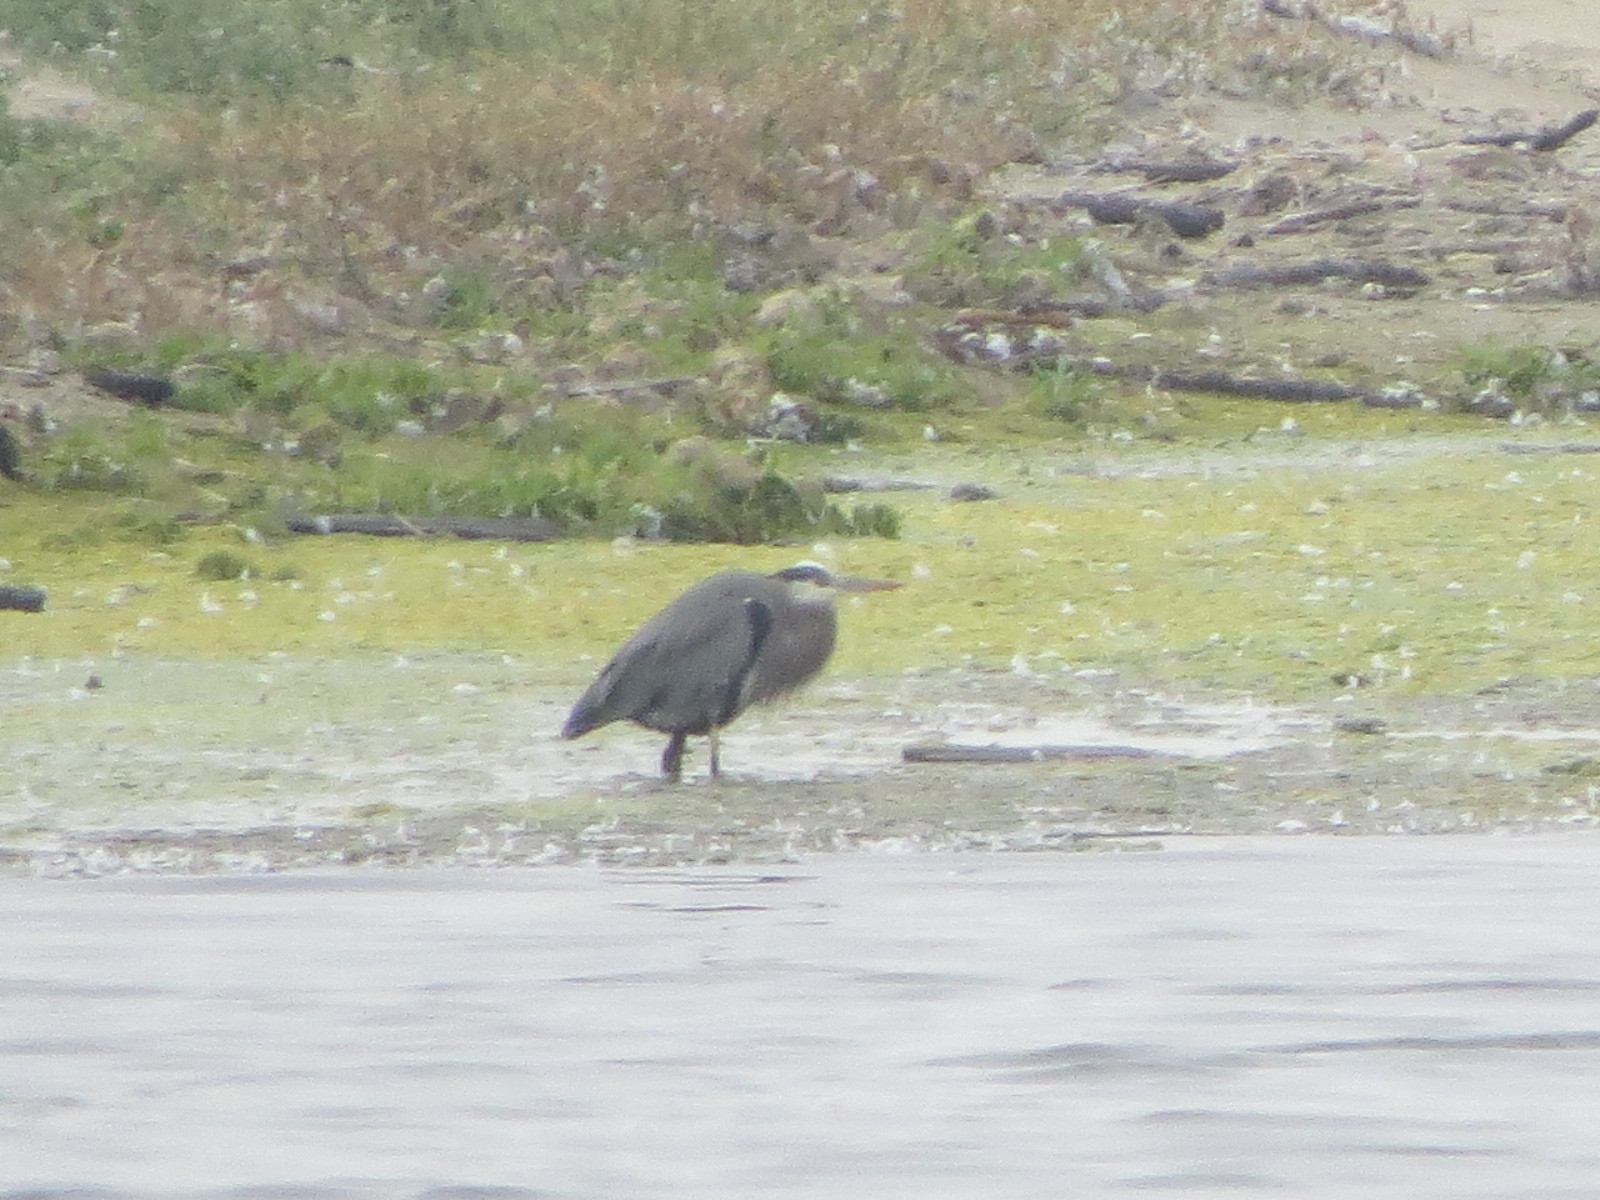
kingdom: Animalia
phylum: Chordata
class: Aves
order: Pelecaniformes
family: Ardeidae
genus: Ardea
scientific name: Ardea herodias
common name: Great blue heron
